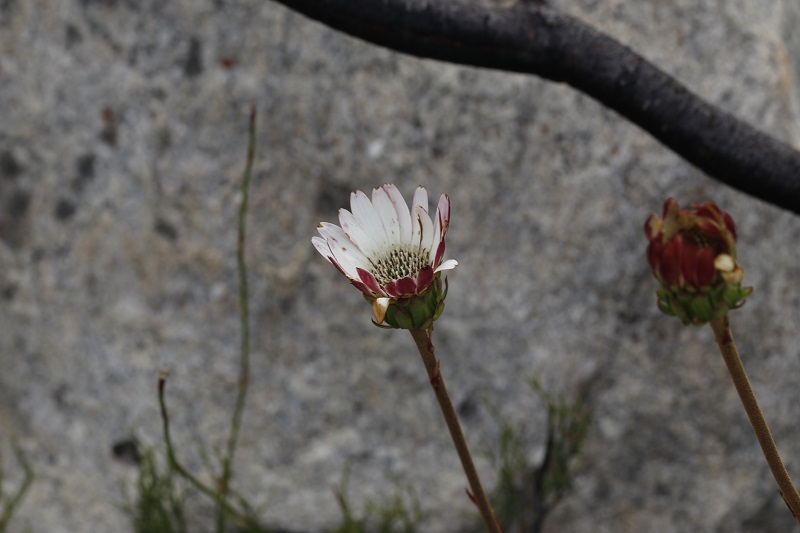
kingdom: Plantae
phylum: Tracheophyta
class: Magnoliopsida
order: Asterales
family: Asteraceae
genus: Gerbera
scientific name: Gerbera linnaei
